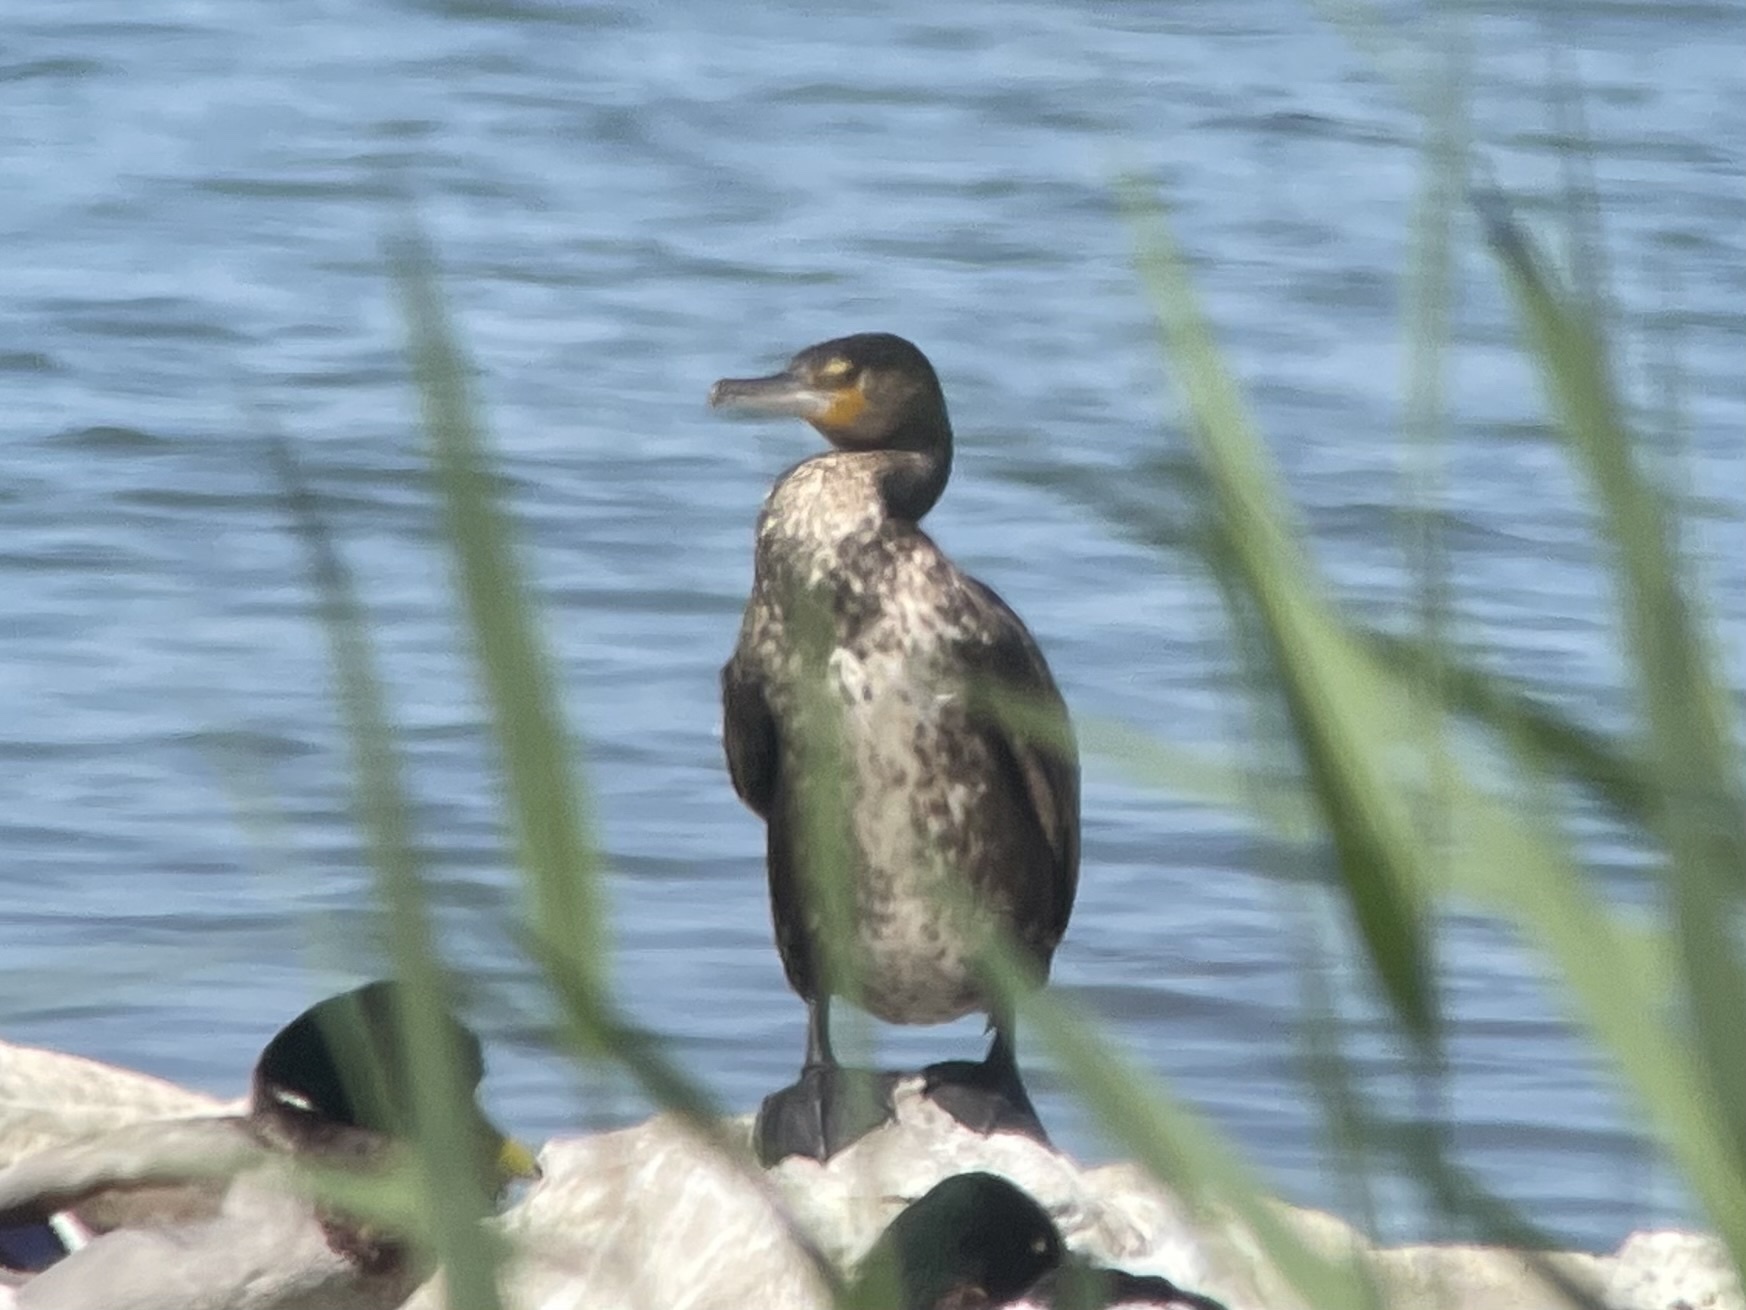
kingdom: Animalia
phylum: Chordata
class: Aves
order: Suliformes
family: Phalacrocoracidae
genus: Phalacrocorax
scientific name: Phalacrocorax carbo
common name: Great cormorant
